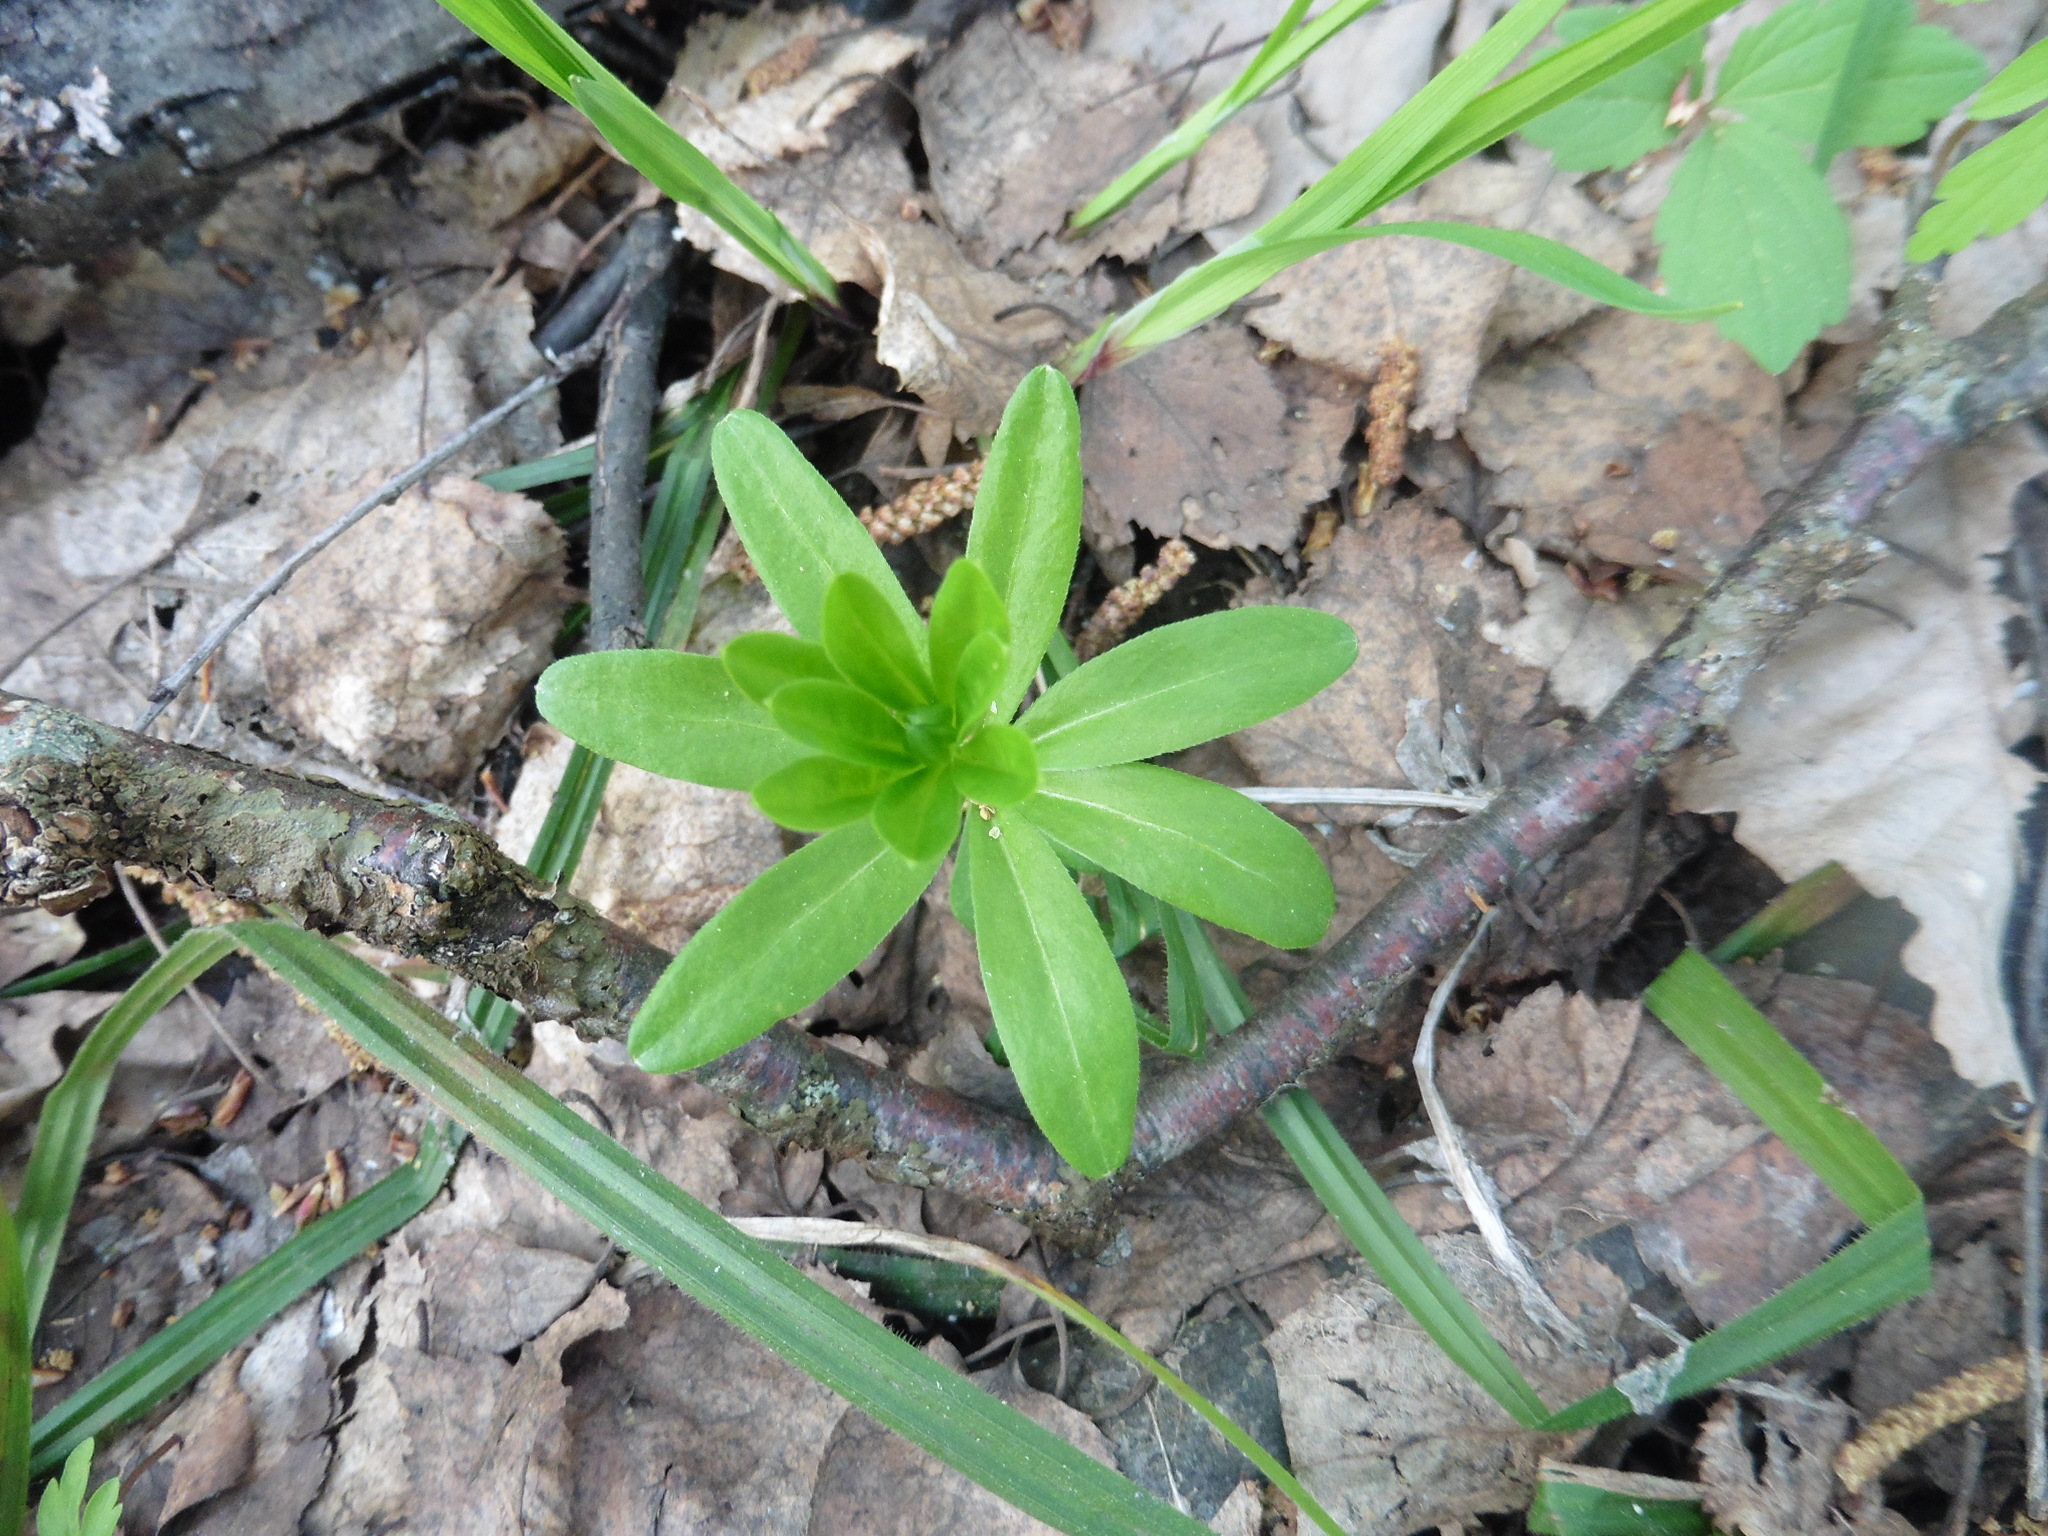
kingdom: Plantae
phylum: Tracheophyta
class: Magnoliopsida
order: Gentianales
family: Rubiaceae
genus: Galium
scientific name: Galium odoratum
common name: Sweet woodruff
